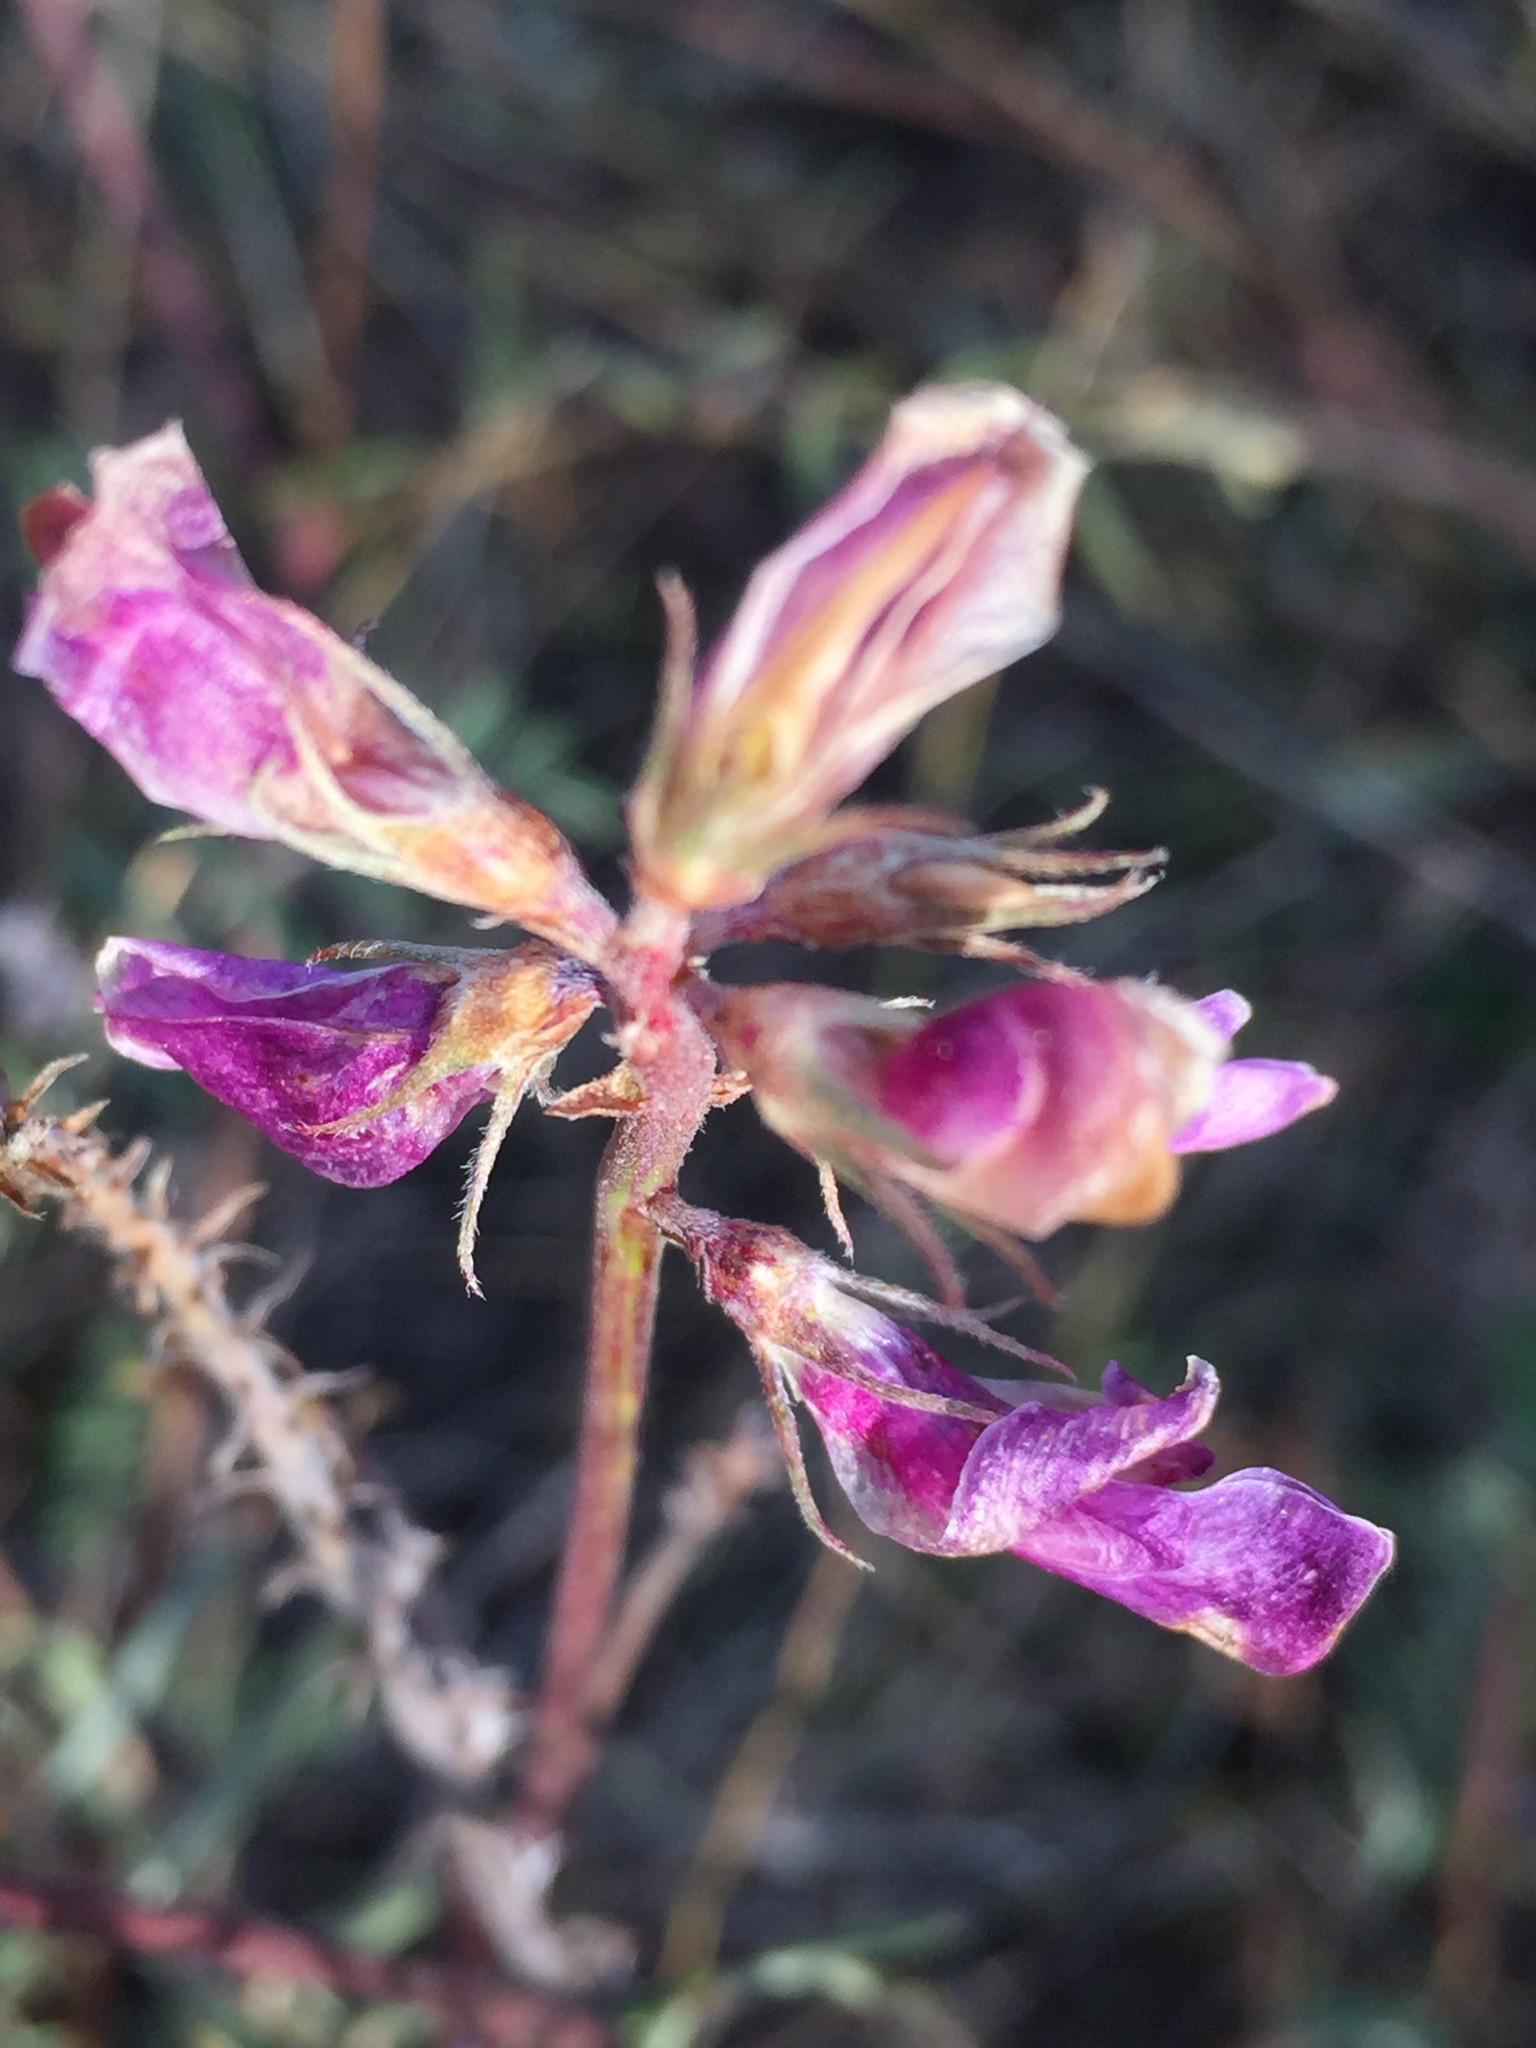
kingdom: Plantae
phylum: Tracheophyta
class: Magnoliopsida
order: Fabales
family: Fabaceae
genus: Hedysarum
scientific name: Hedysarum ucrainicum
